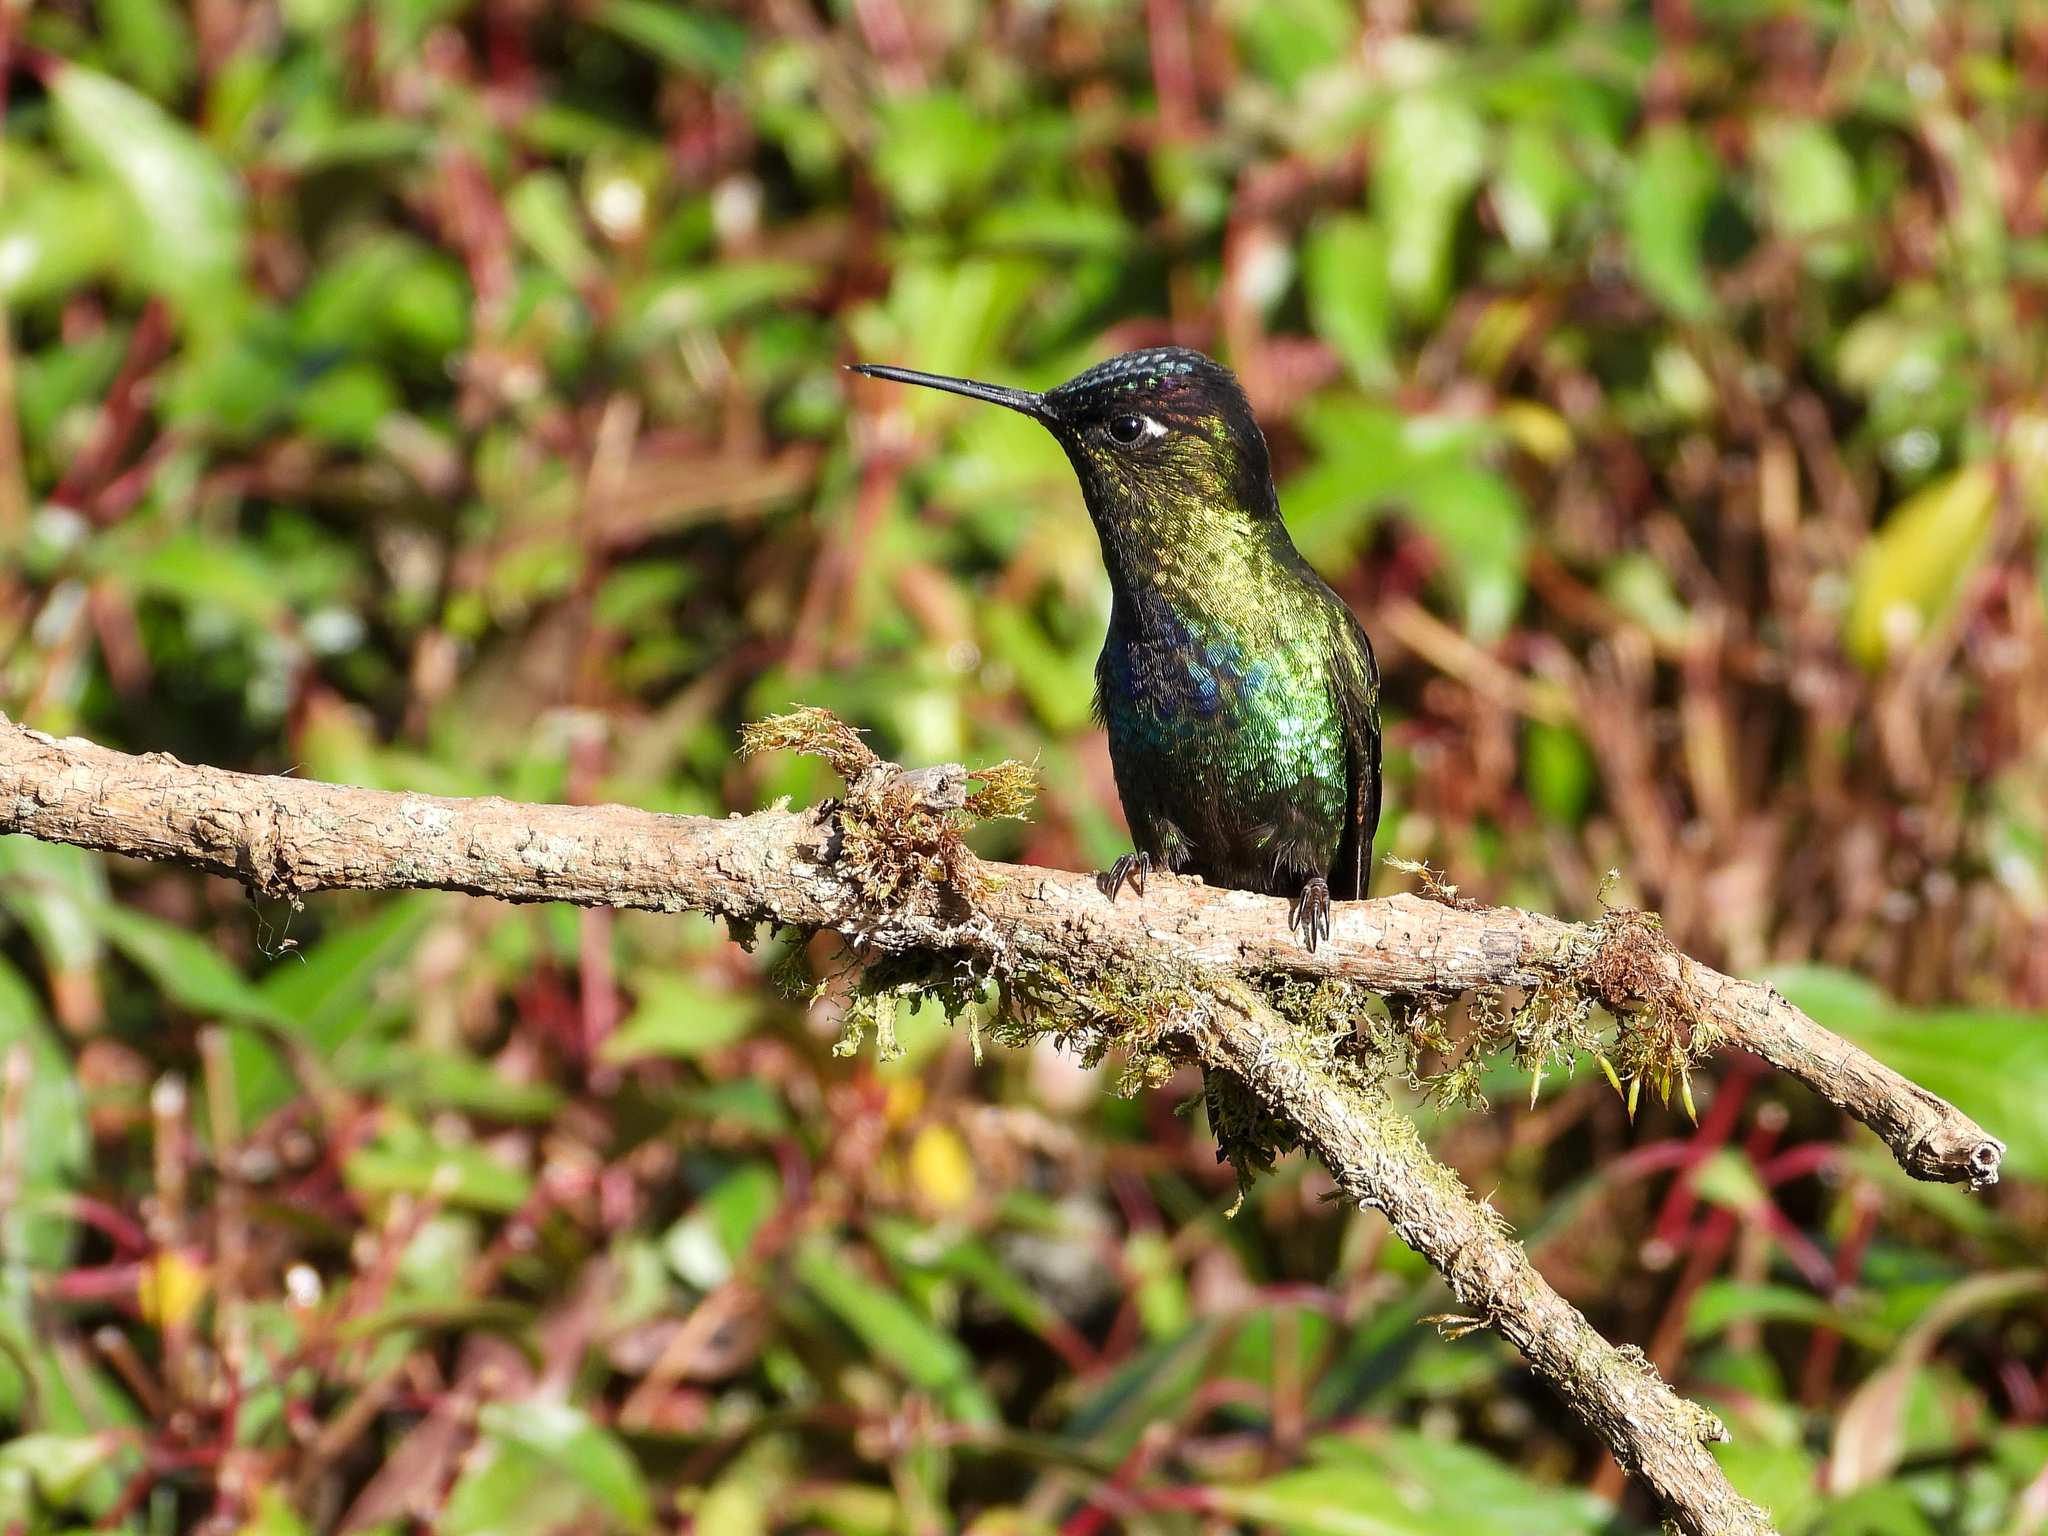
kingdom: Animalia
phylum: Chordata
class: Aves
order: Apodiformes
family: Trochilidae
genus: Panterpe
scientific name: Panterpe insignis
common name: Fiery-throated hummingbird
